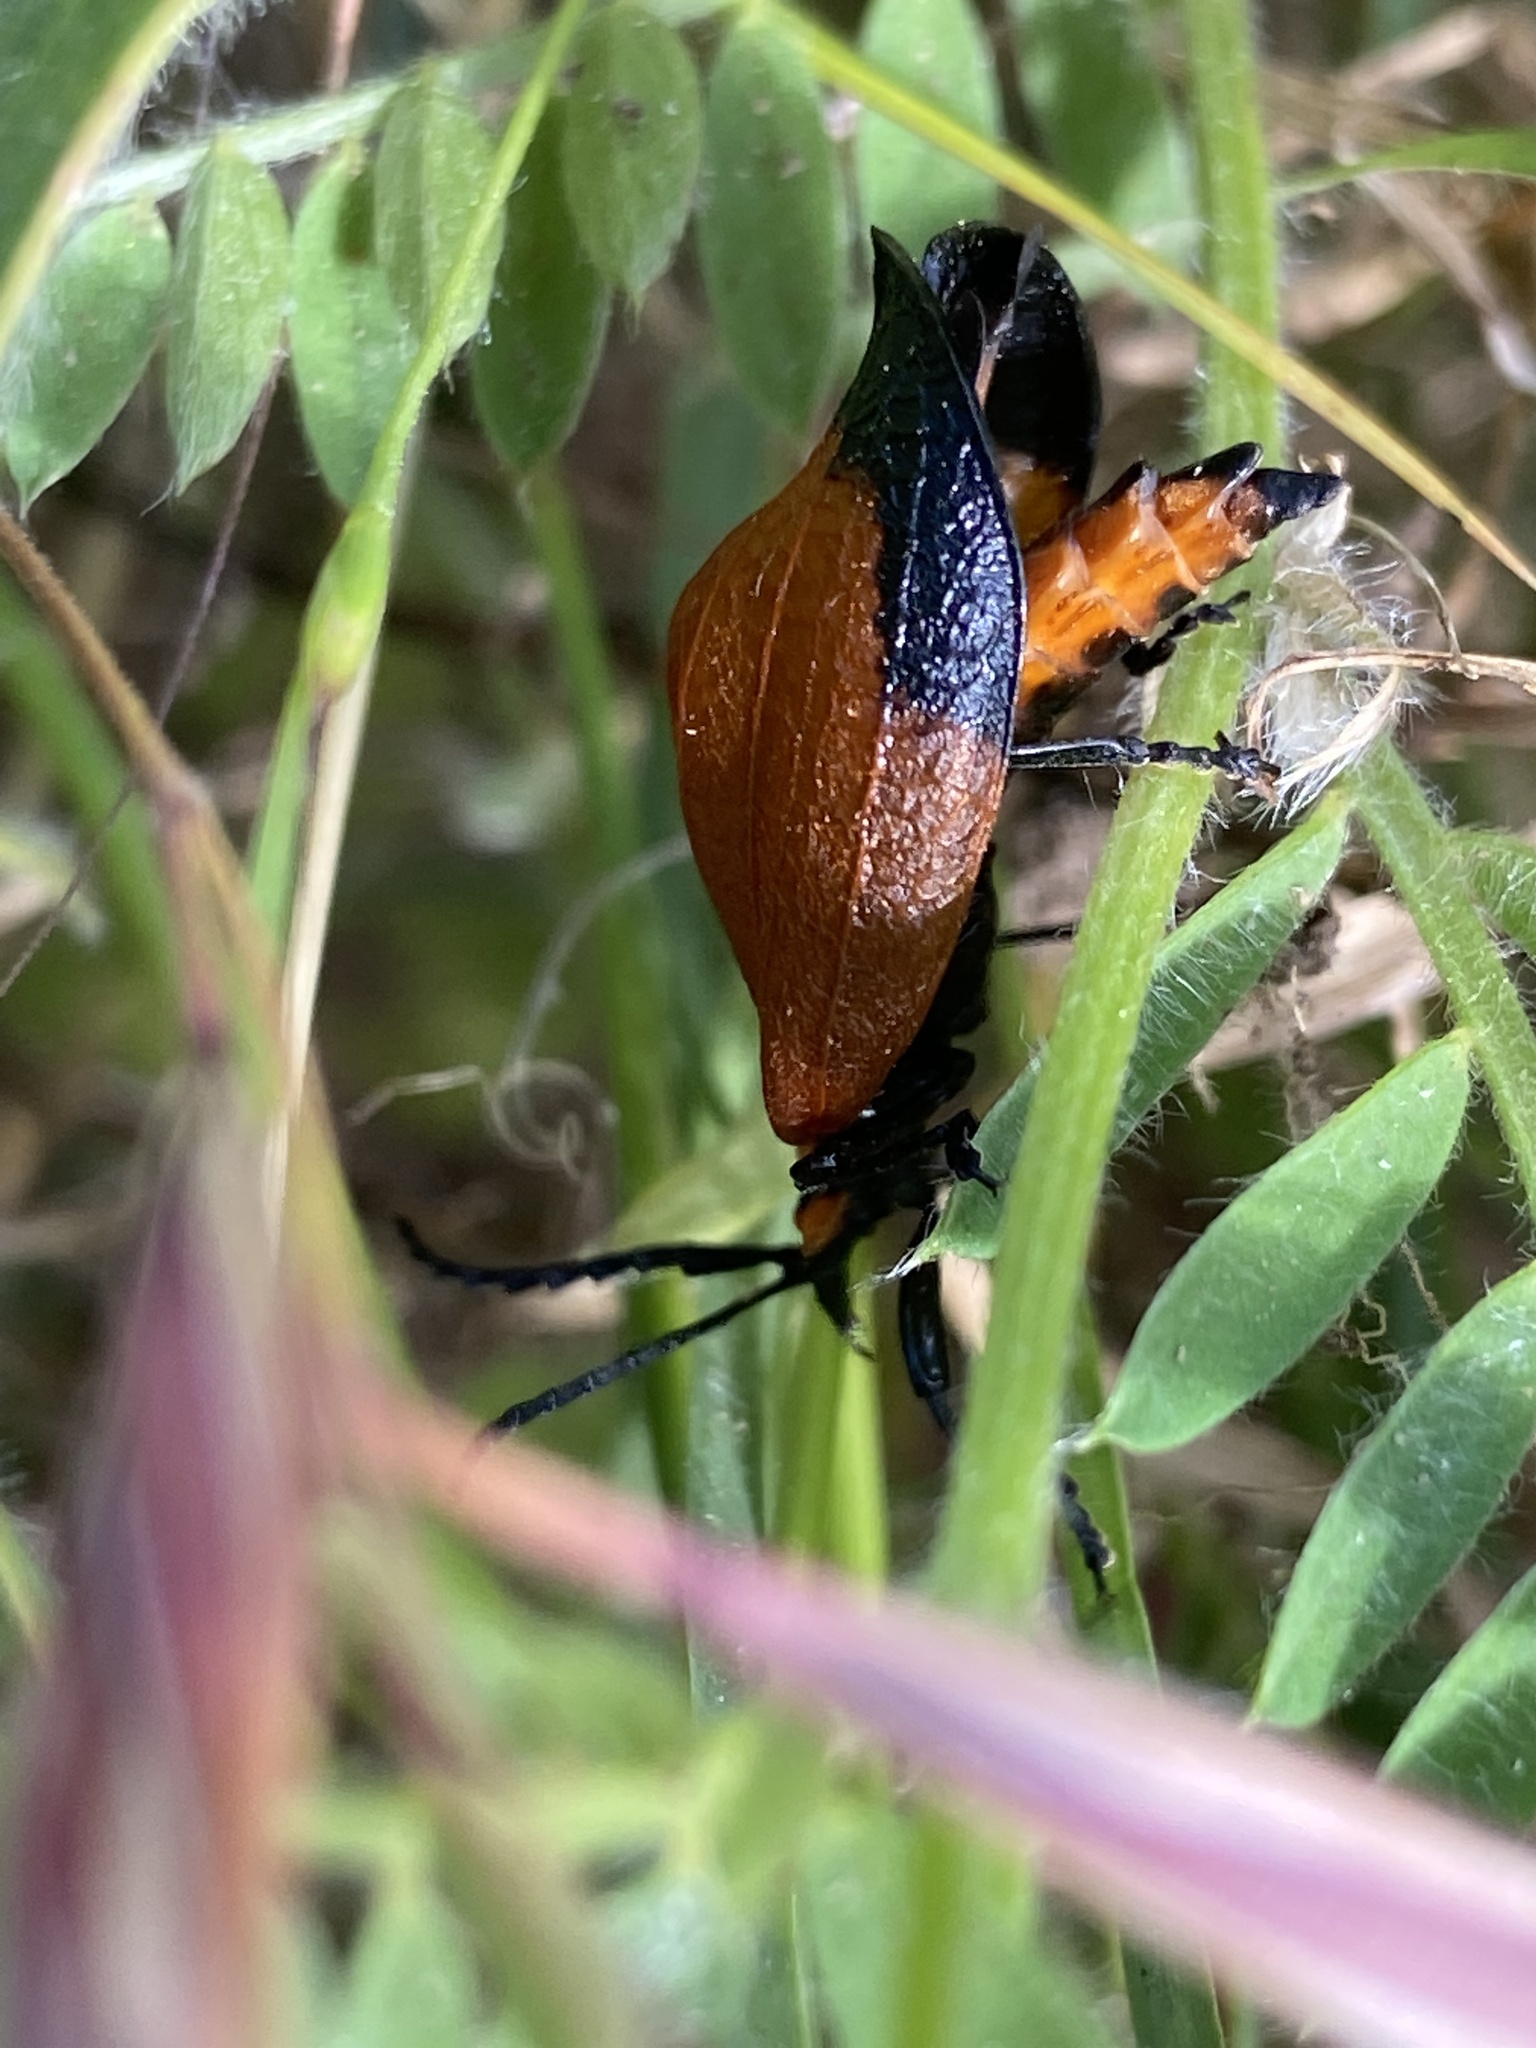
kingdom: Animalia
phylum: Arthropoda
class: Insecta
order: Coleoptera
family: Lycidae
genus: Lycus
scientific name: Lycus
